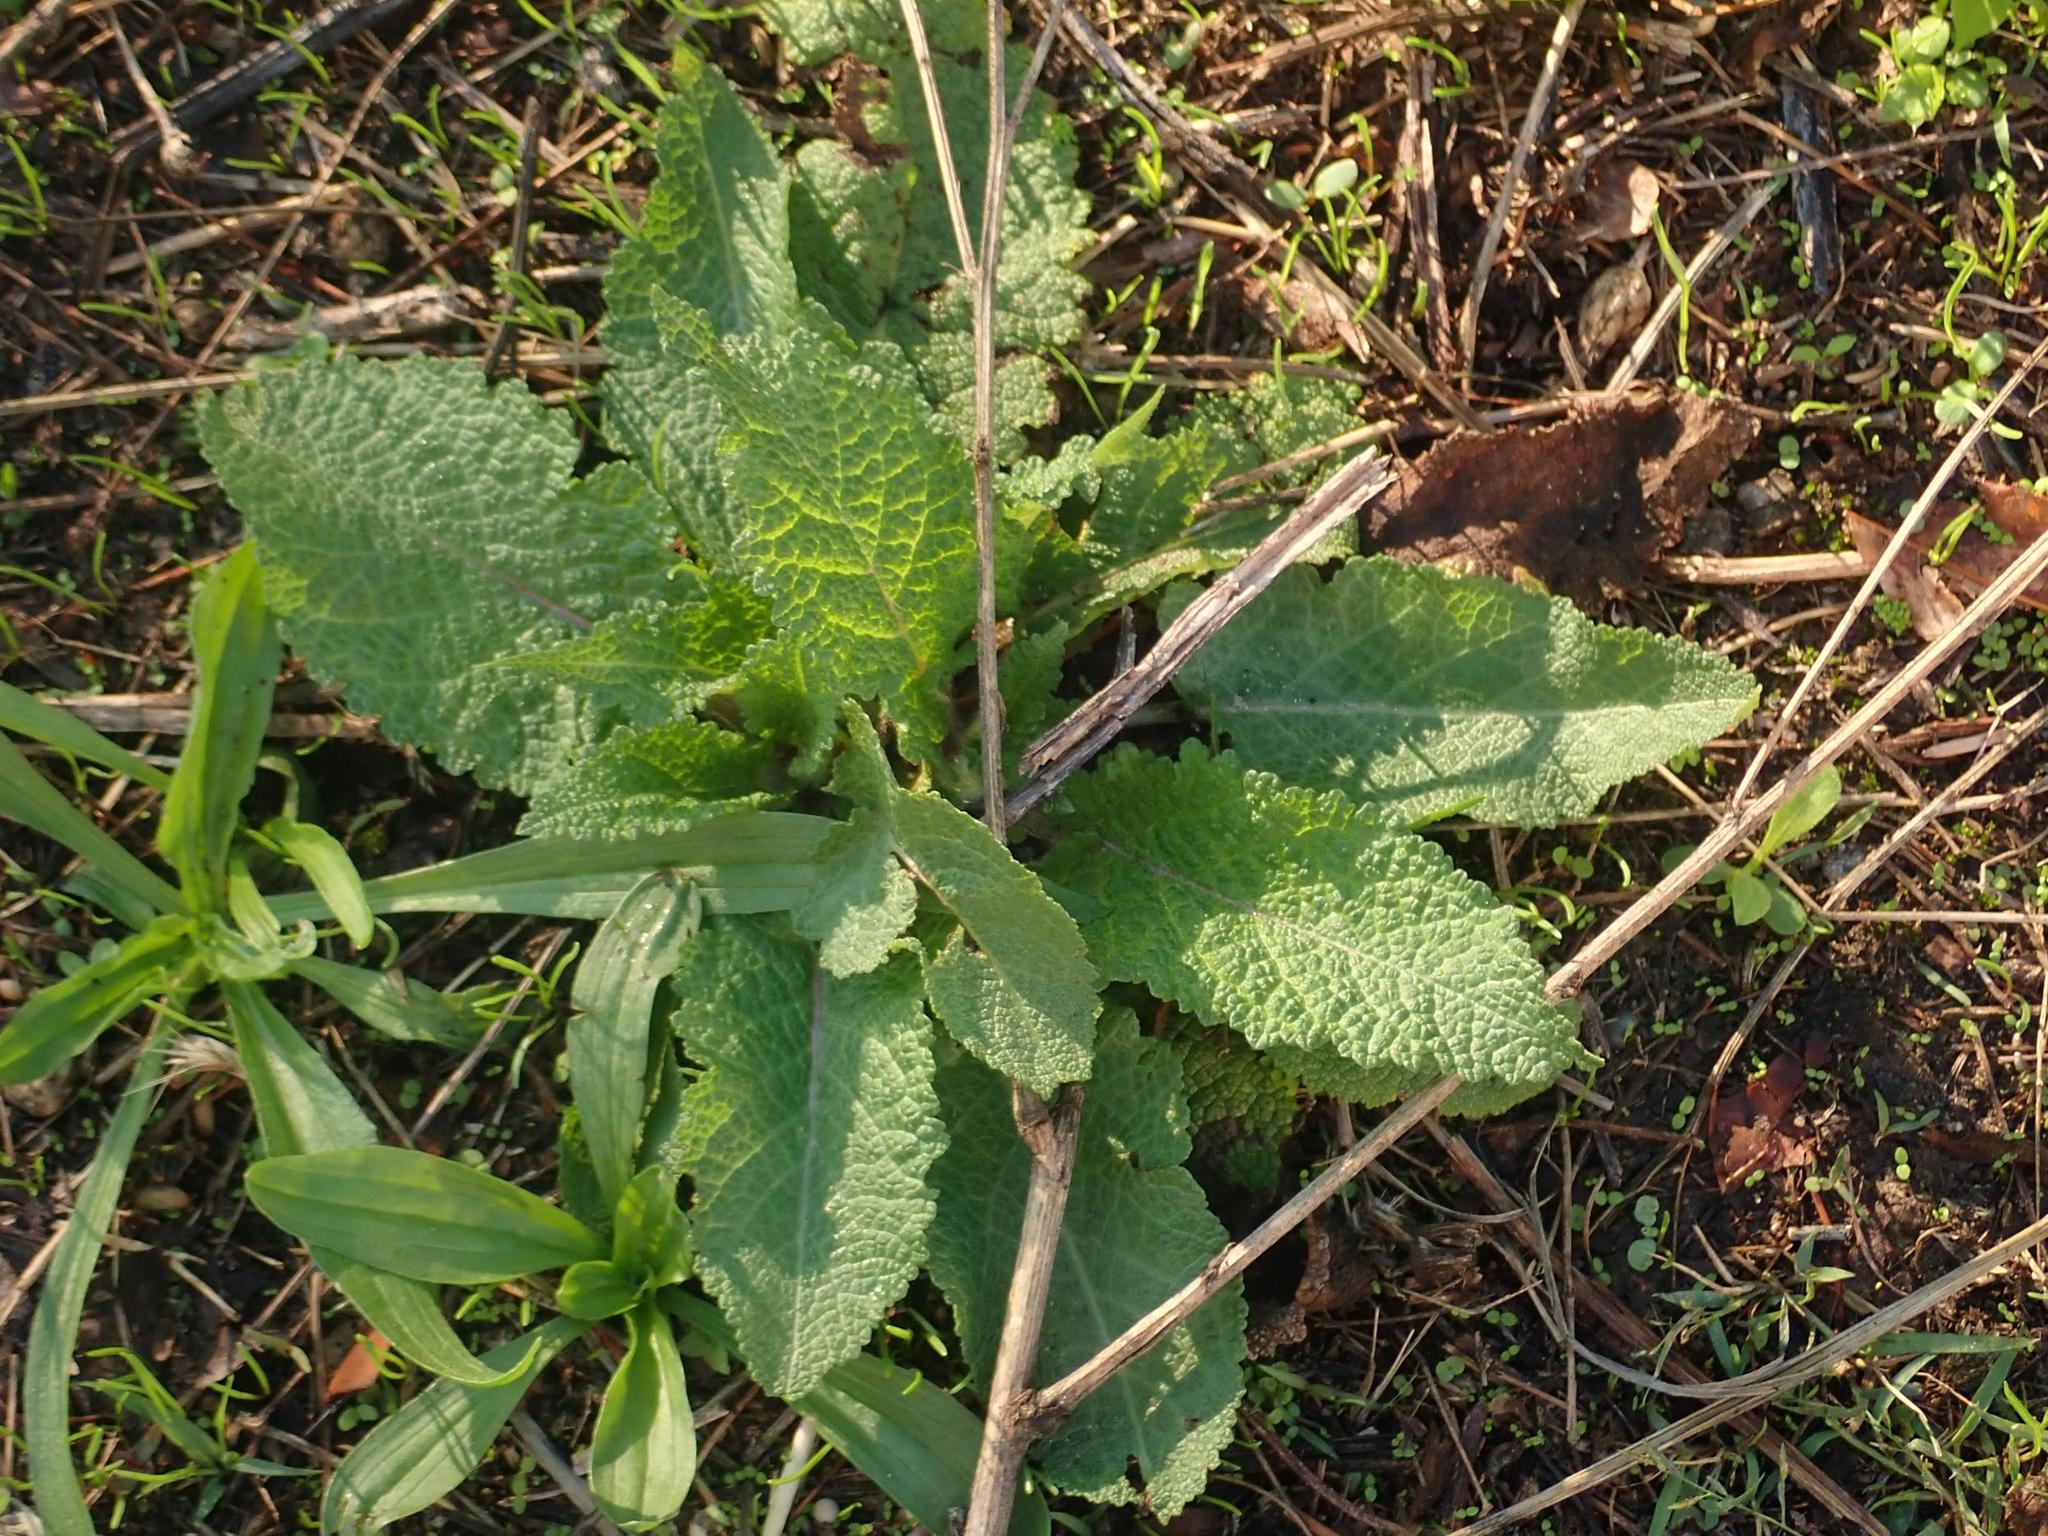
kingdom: Plantae
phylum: Tracheophyta
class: Magnoliopsida
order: Lamiales
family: Lamiaceae
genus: Salvia
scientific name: Salvia pratensis
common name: Meadow sage
